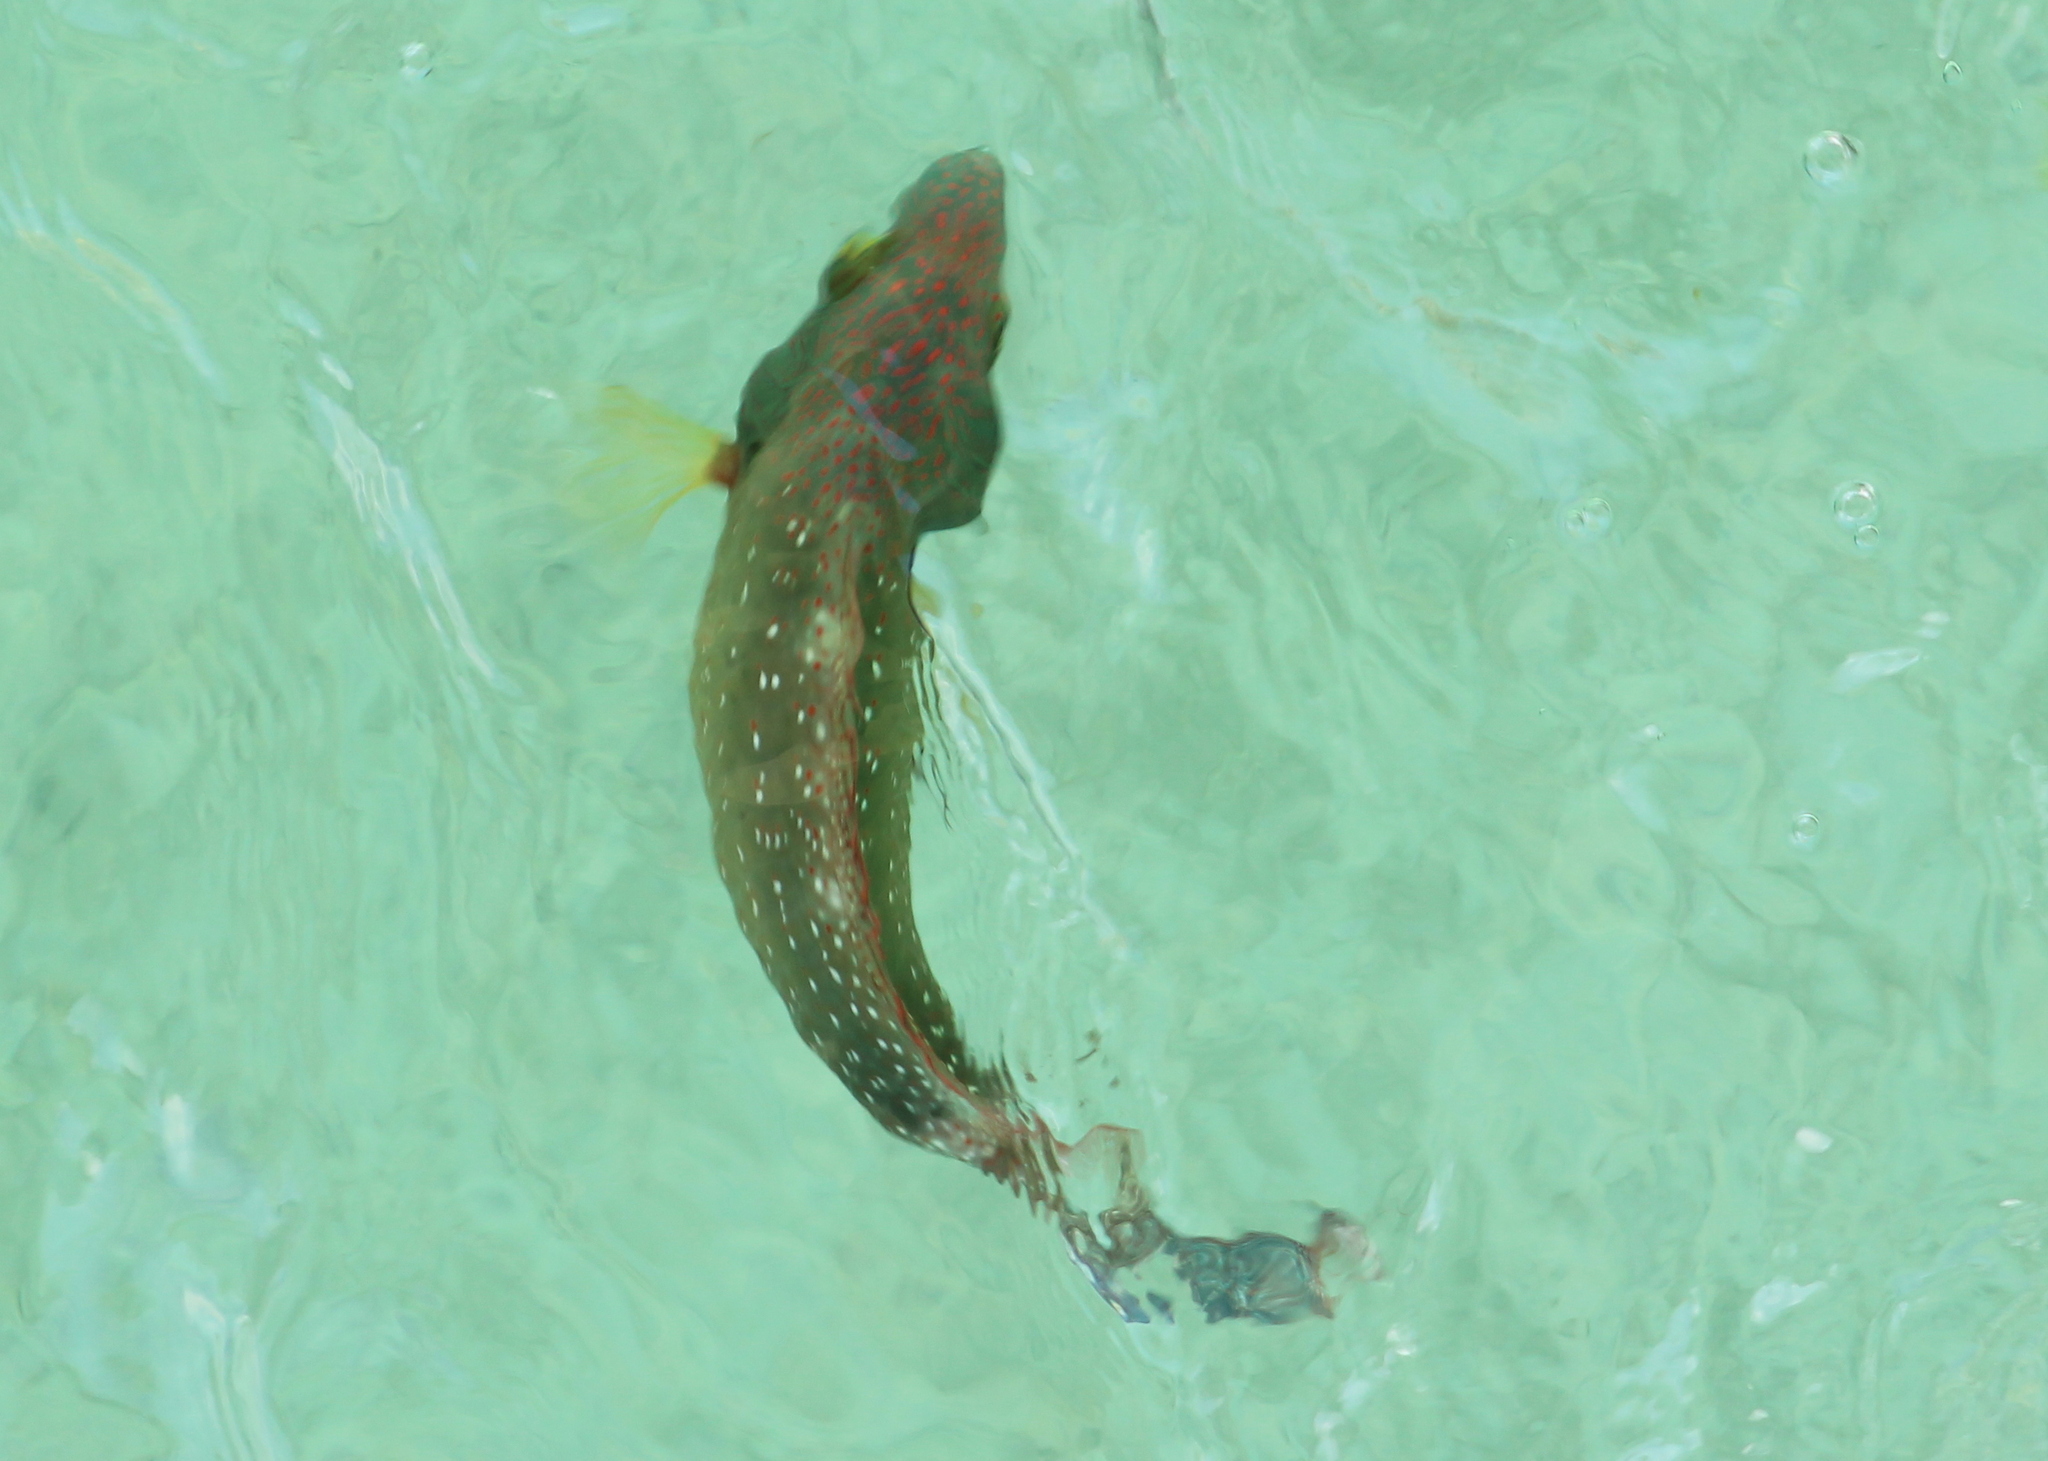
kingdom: Animalia
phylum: Chordata
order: Perciformes
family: Labridae
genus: Cheilinus
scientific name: Cheilinus chlorourus
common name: Floral wrasse
